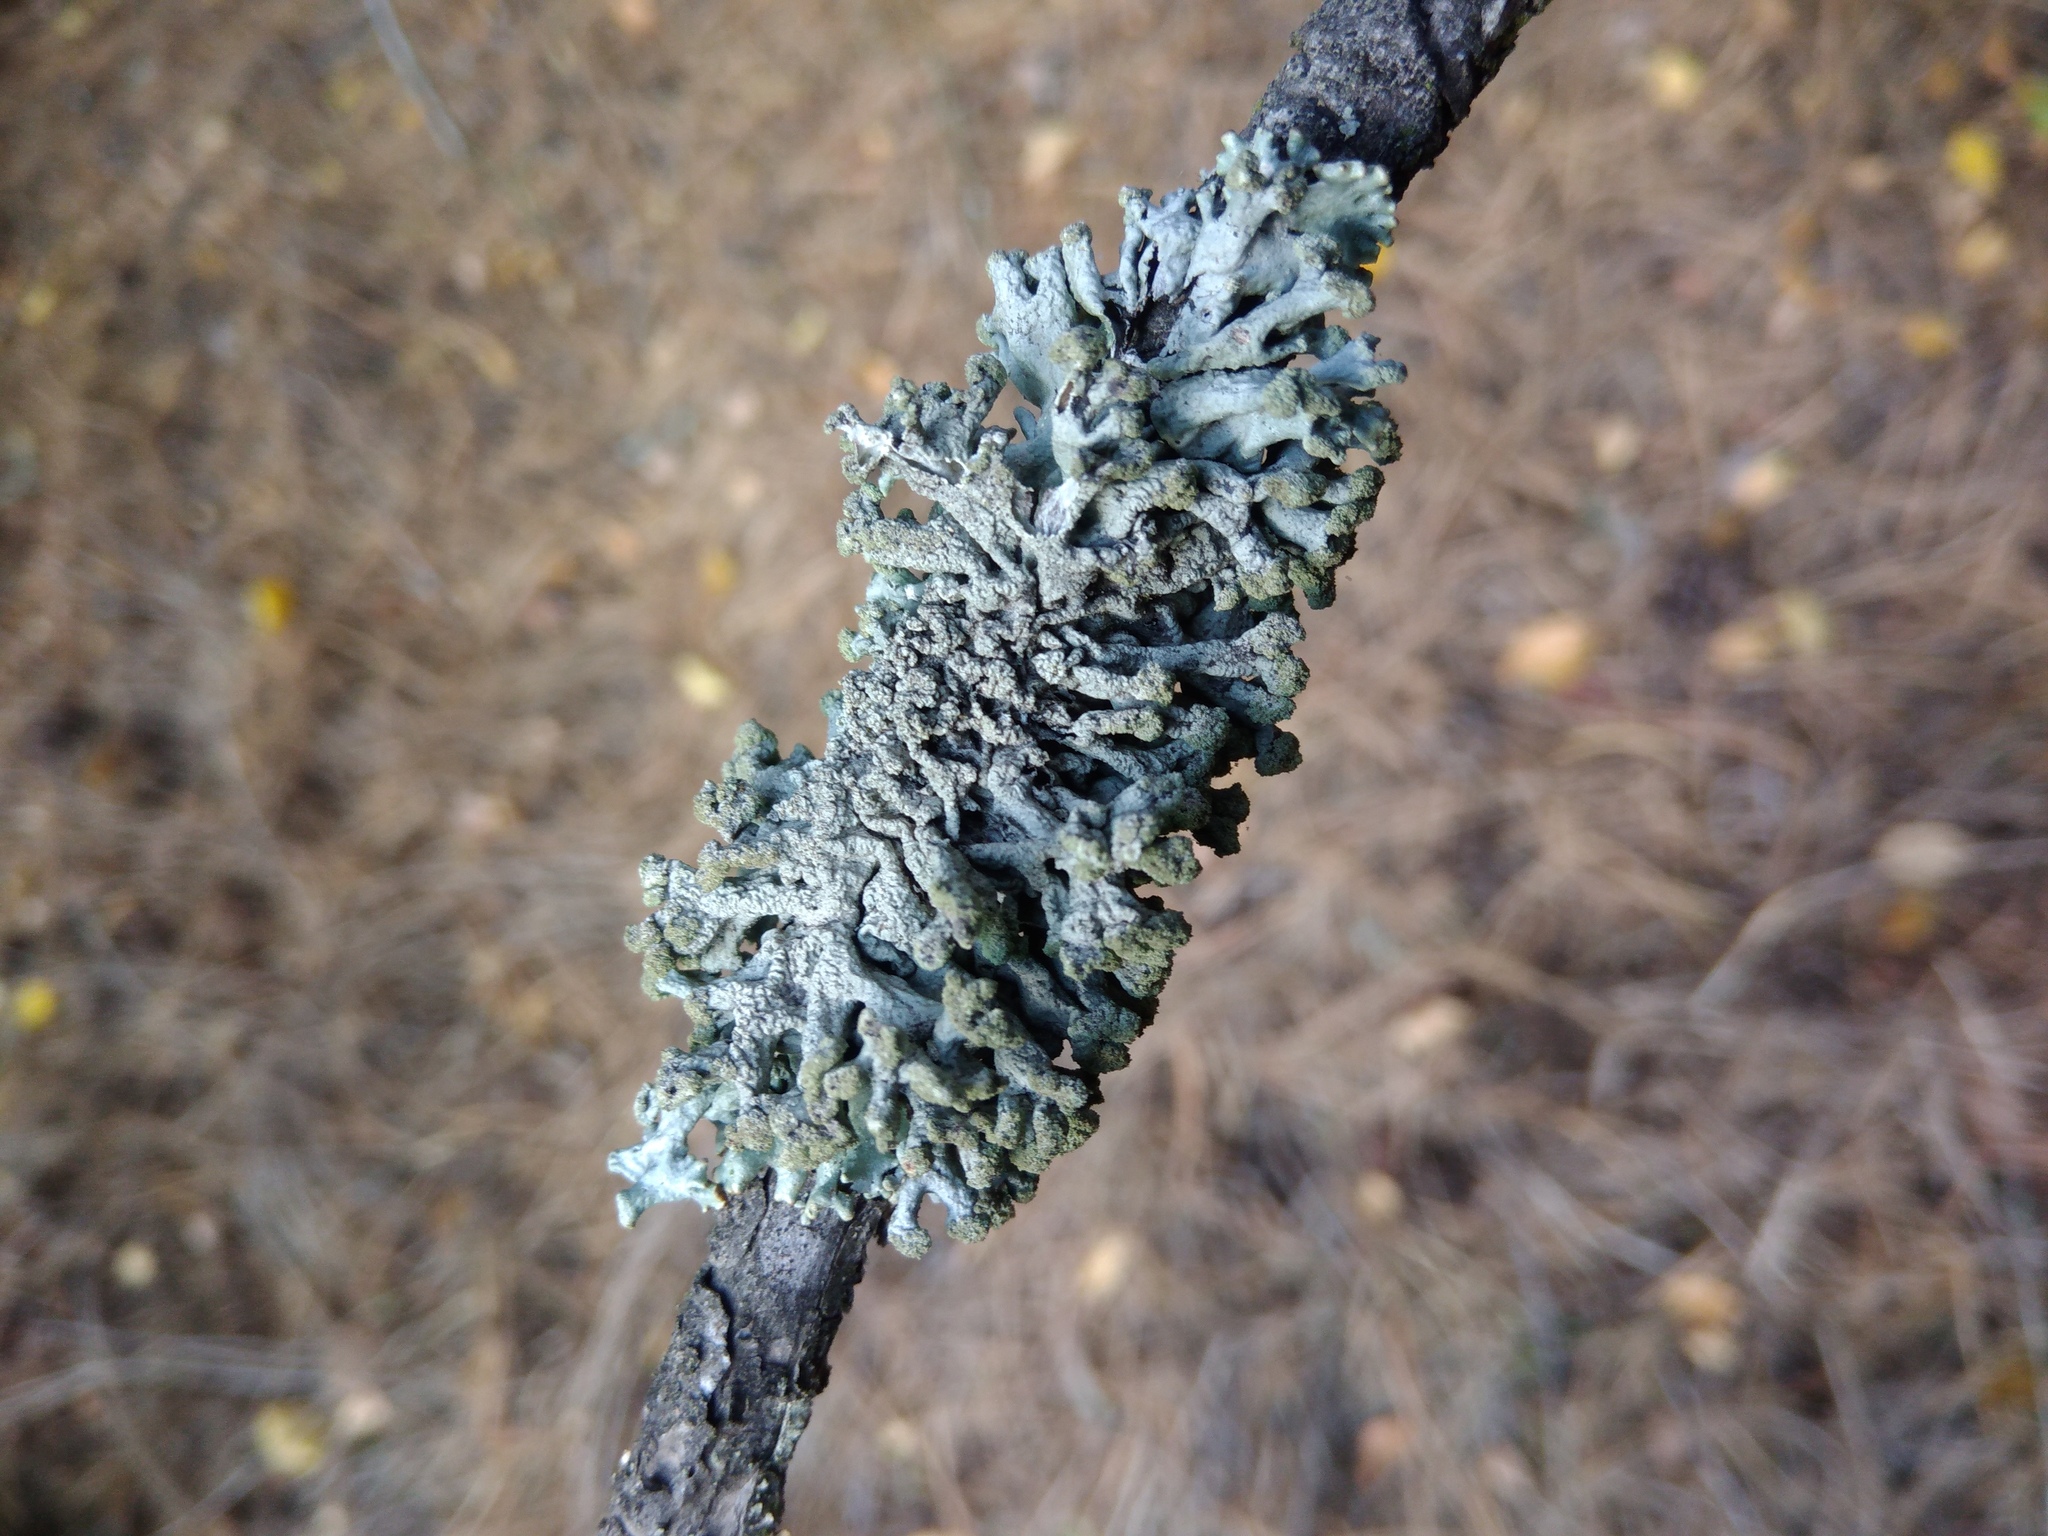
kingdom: Fungi
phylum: Ascomycota
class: Lecanoromycetes
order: Lecanorales
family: Parmeliaceae
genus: Hypogymnia
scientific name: Hypogymnia tubulosa
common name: Powder-headed tube lichen
